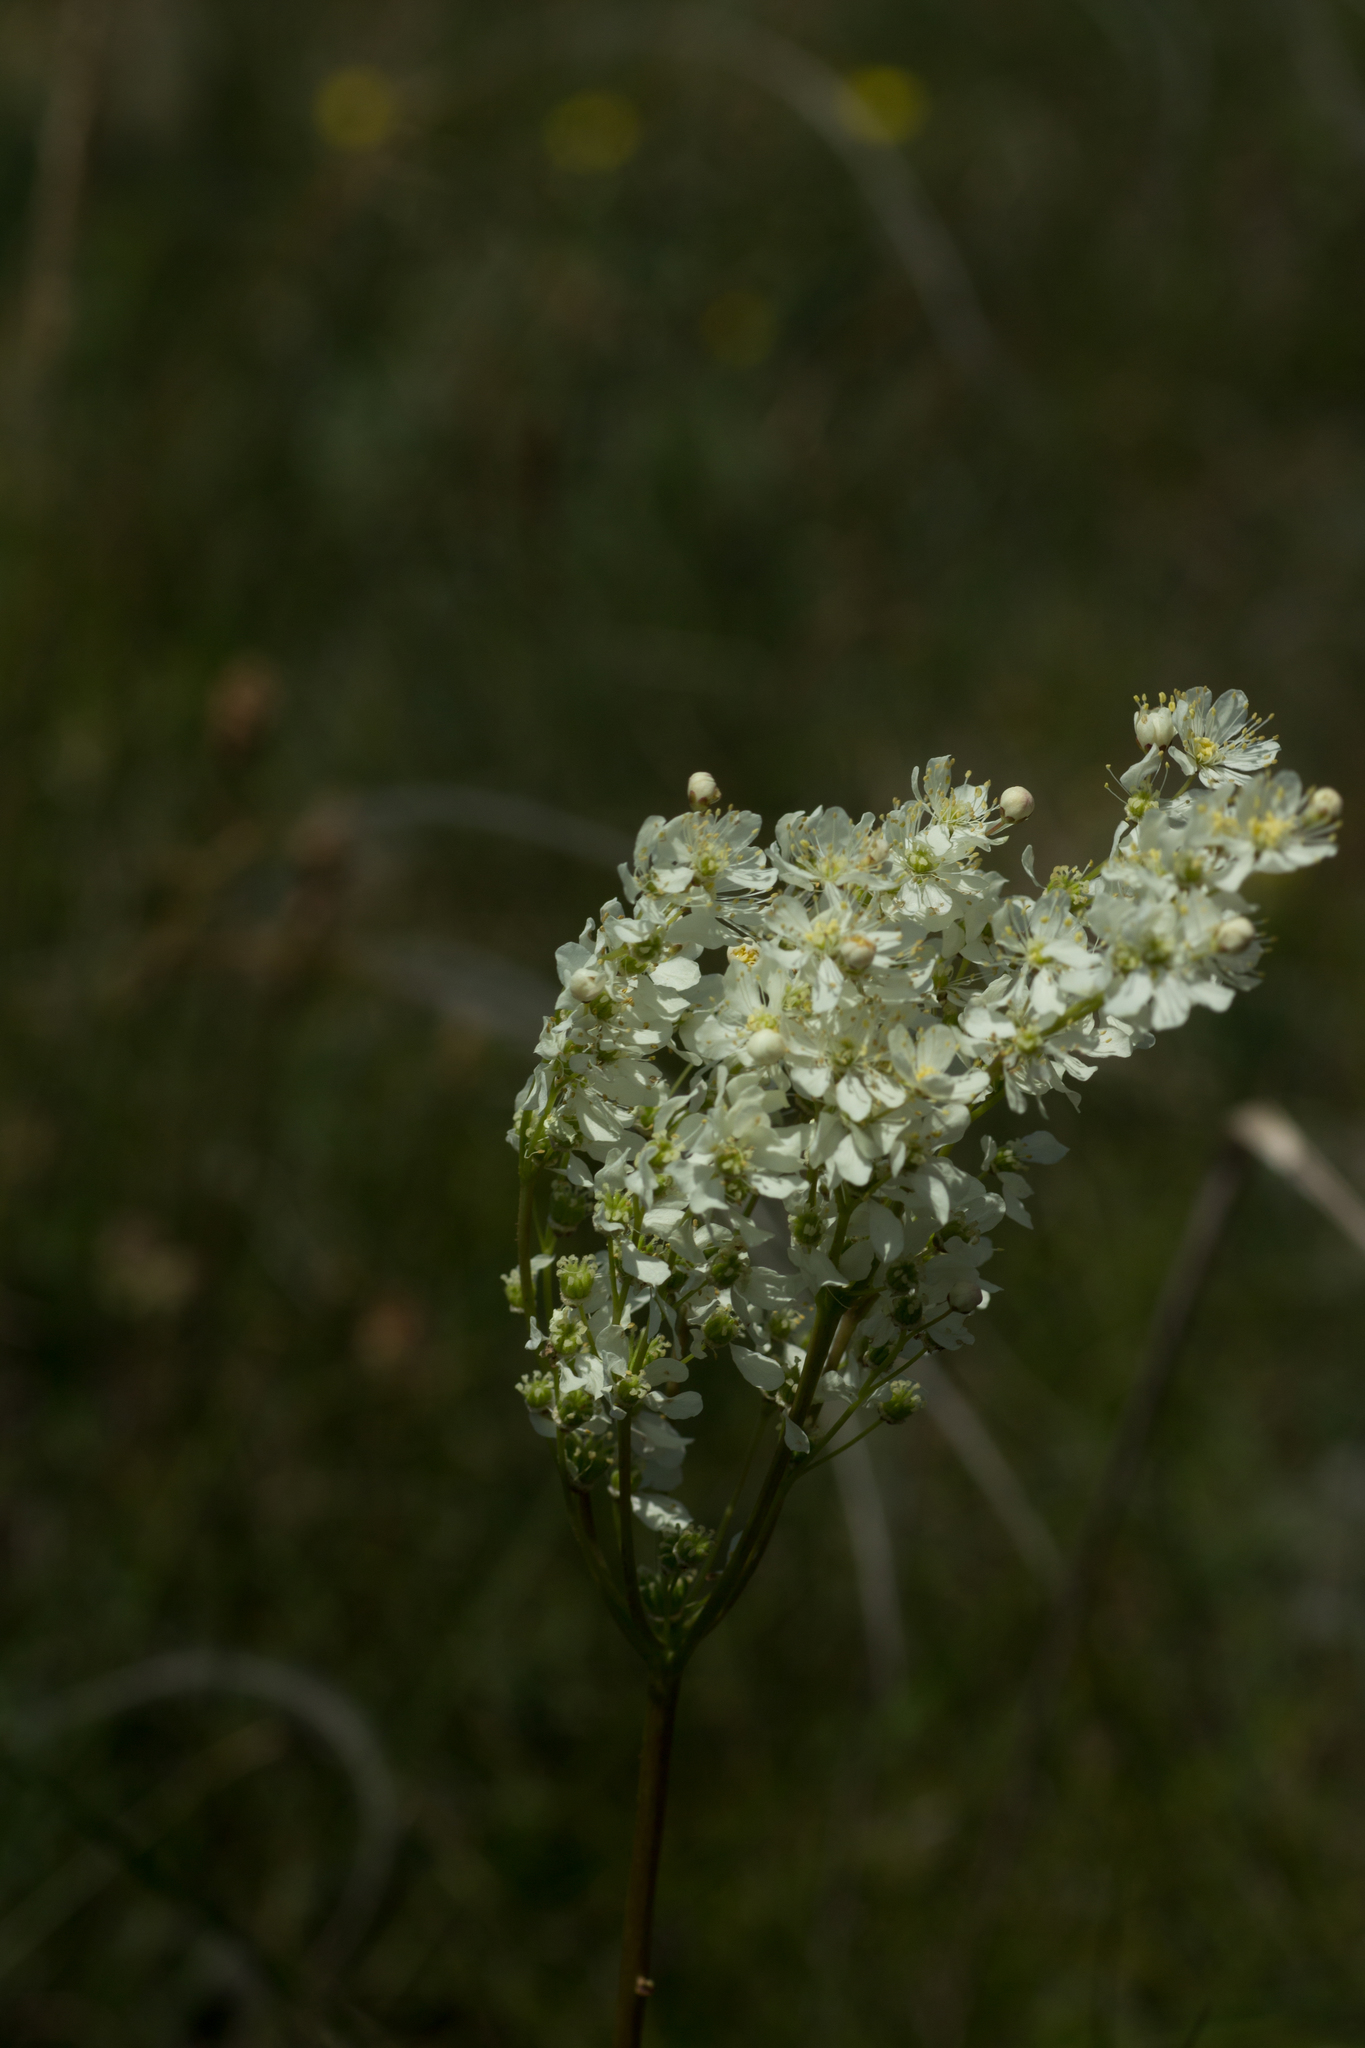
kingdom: Plantae
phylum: Tracheophyta
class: Magnoliopsida
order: Rosales
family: Rosaceae
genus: Filipendula
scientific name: Filipendula vulgaris
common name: Dropwort
